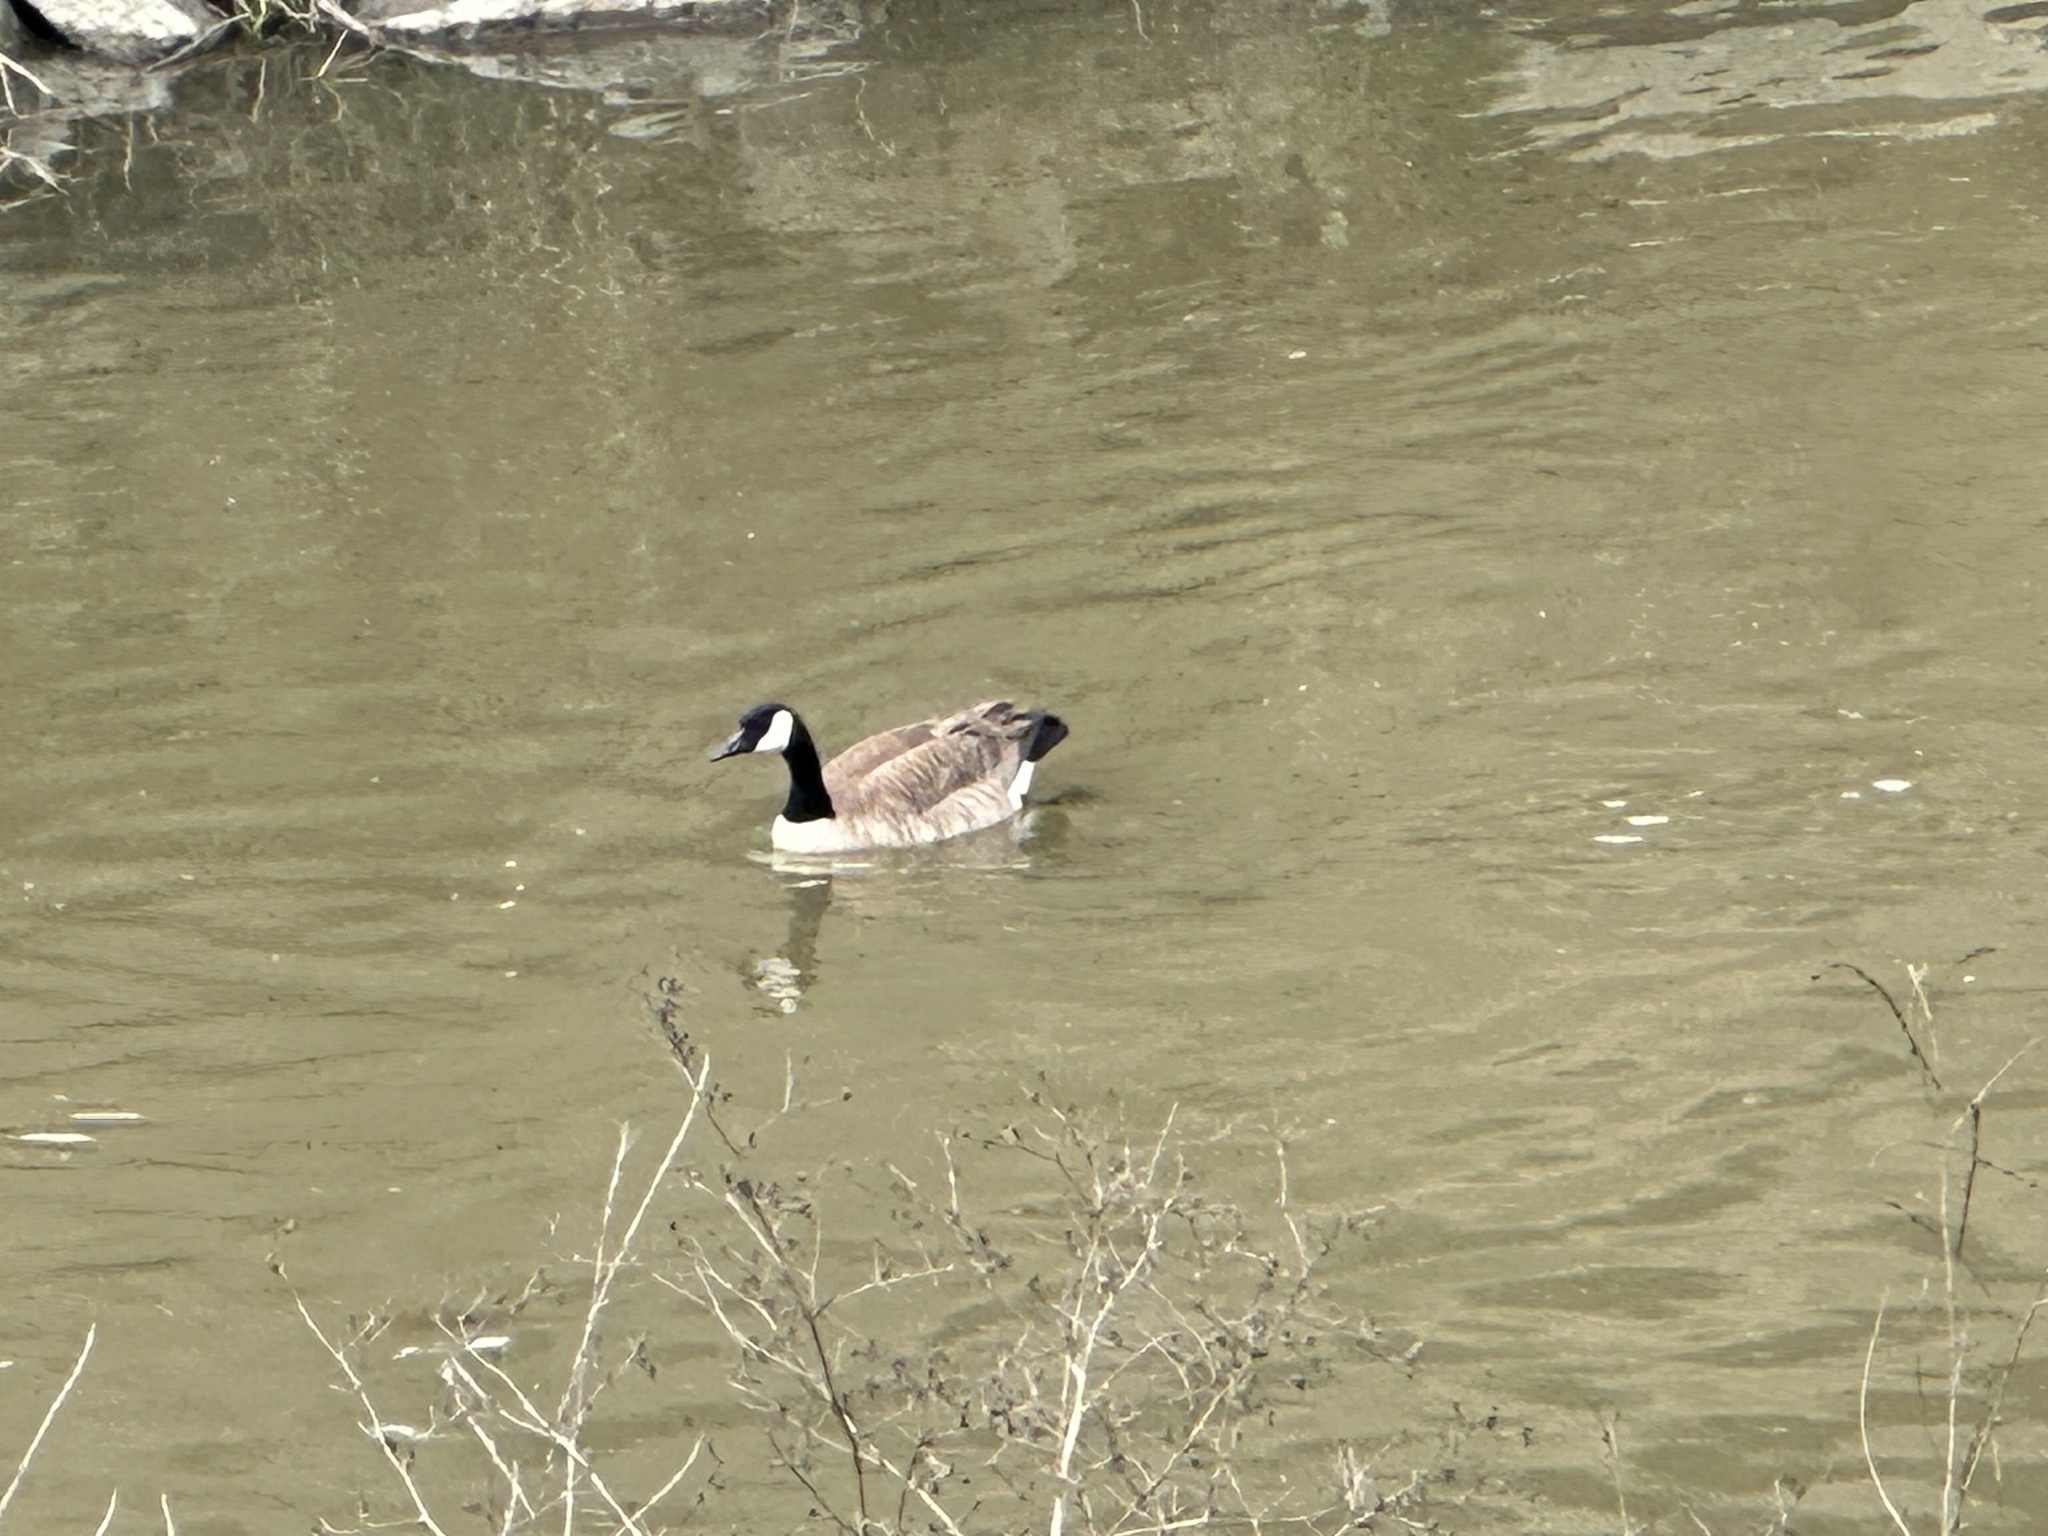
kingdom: Animalia
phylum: Chordata
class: Aves
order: Anseriformes
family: Anatidae
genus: Branta
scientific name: Branta canadensis
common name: Canada goose
